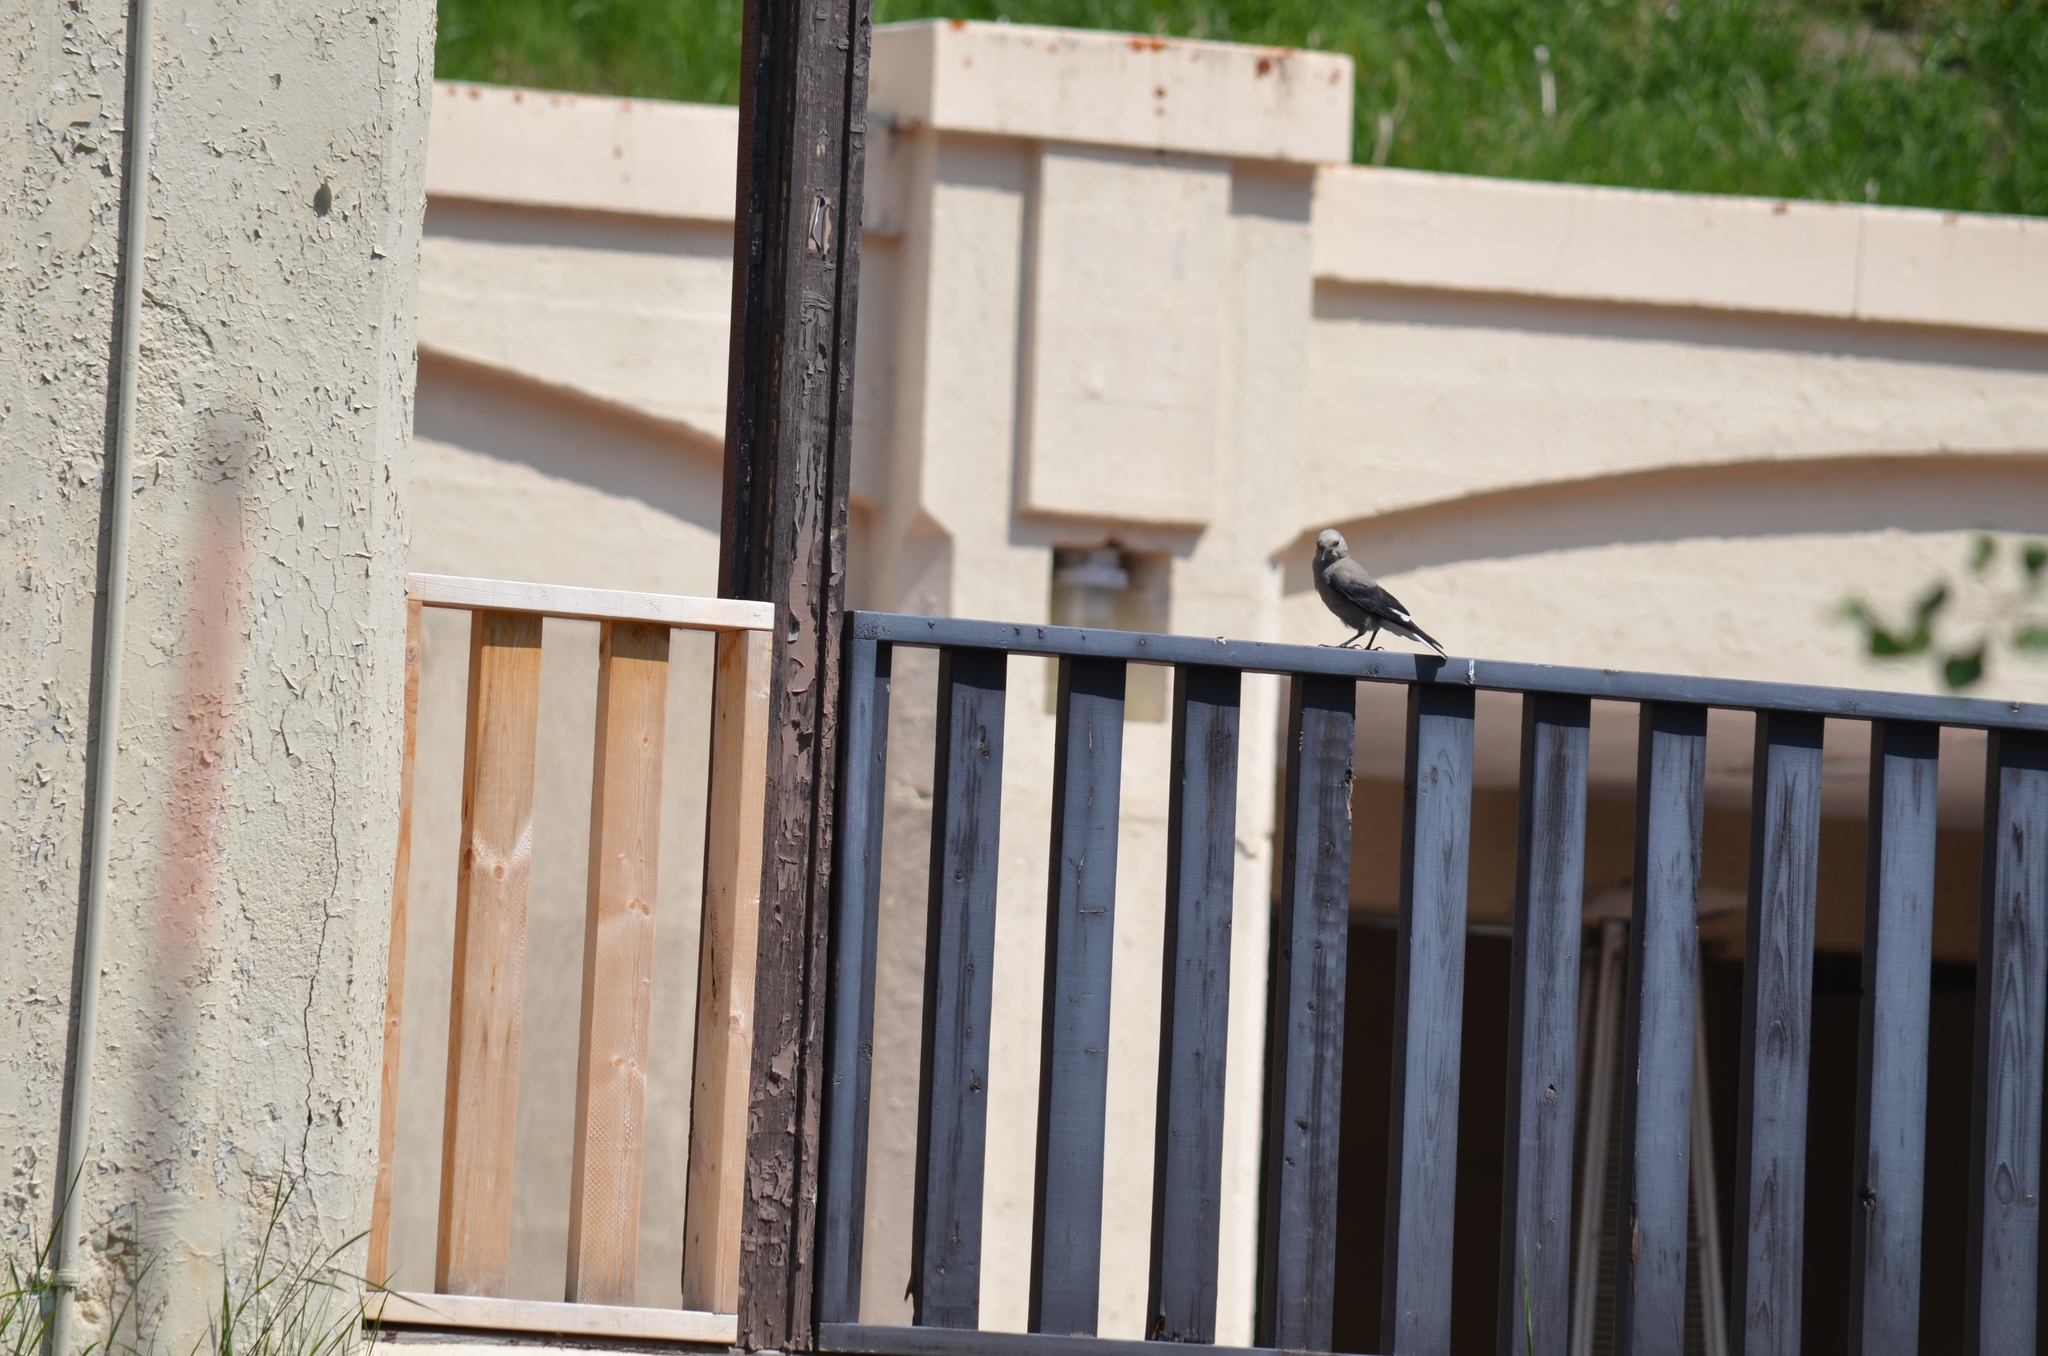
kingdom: Animalia
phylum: Chordata
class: Aves
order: Passeriformes
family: Corvidae
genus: Nucifraga
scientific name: Nucifraga columbiana
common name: Clark's nutcracker
